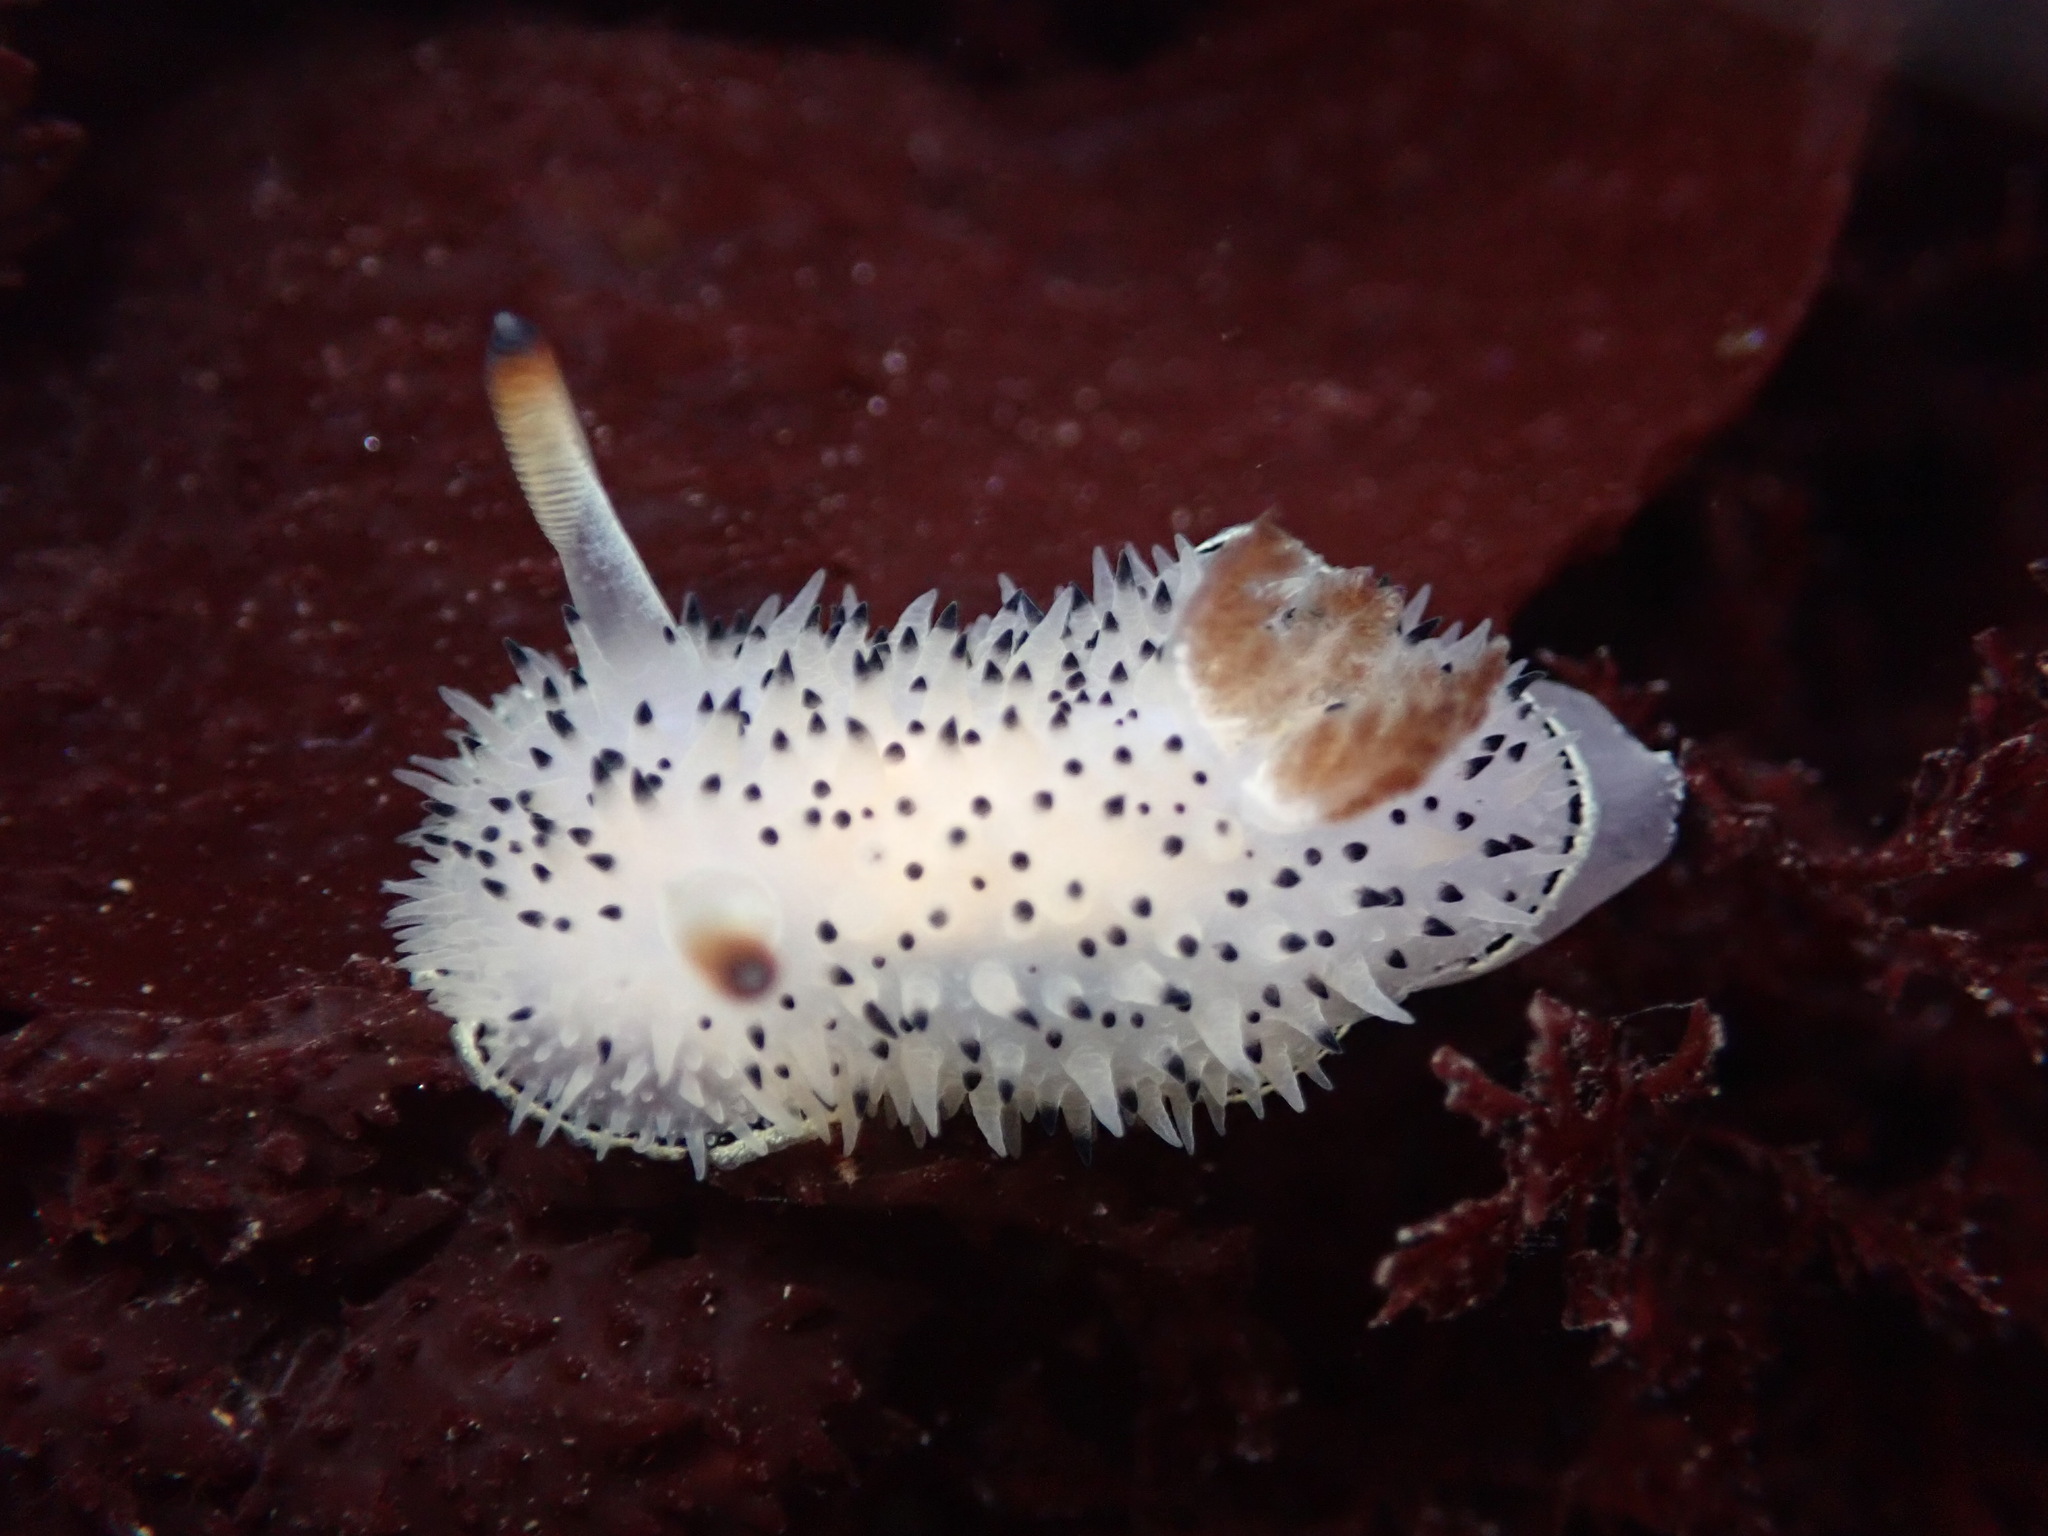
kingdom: Animalia
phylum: Mollusca
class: Gastropoda
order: Nudibranchia
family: Onchidorididae
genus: Acanthodoris
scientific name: Acanthodoris rhodoceras
